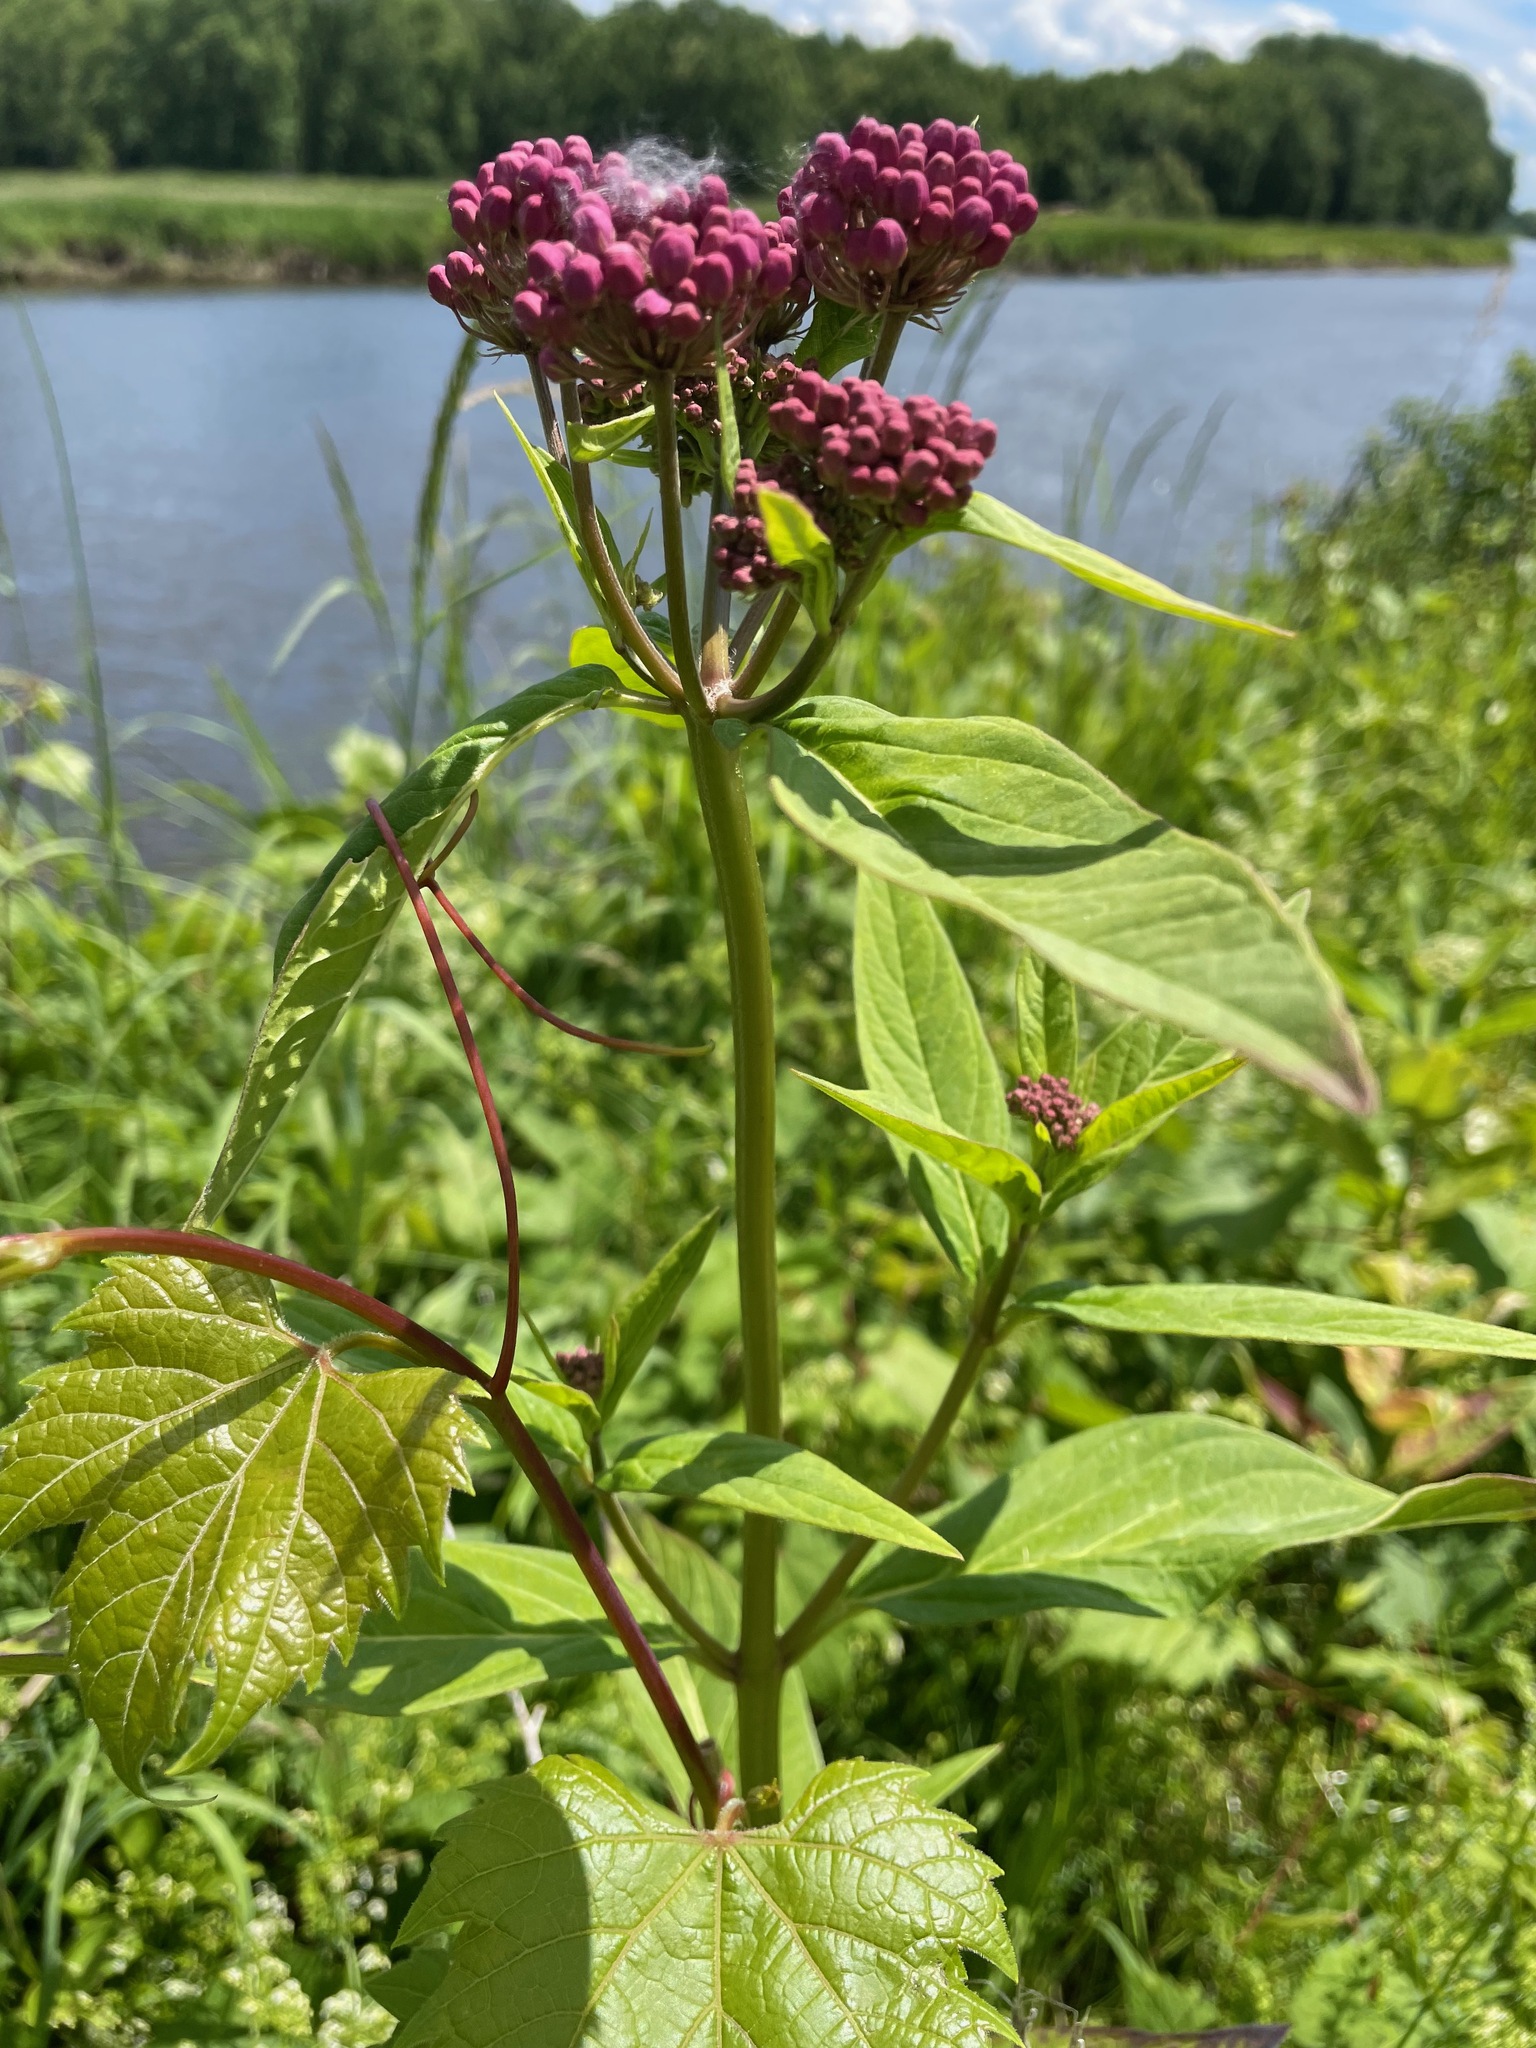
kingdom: Plantae
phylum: Tracheophyta
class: Magnoliopsida
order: Gentianales
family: Apocynaceae
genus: Asclepias
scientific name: Asclepias incarnata
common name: Swamp milkweed
